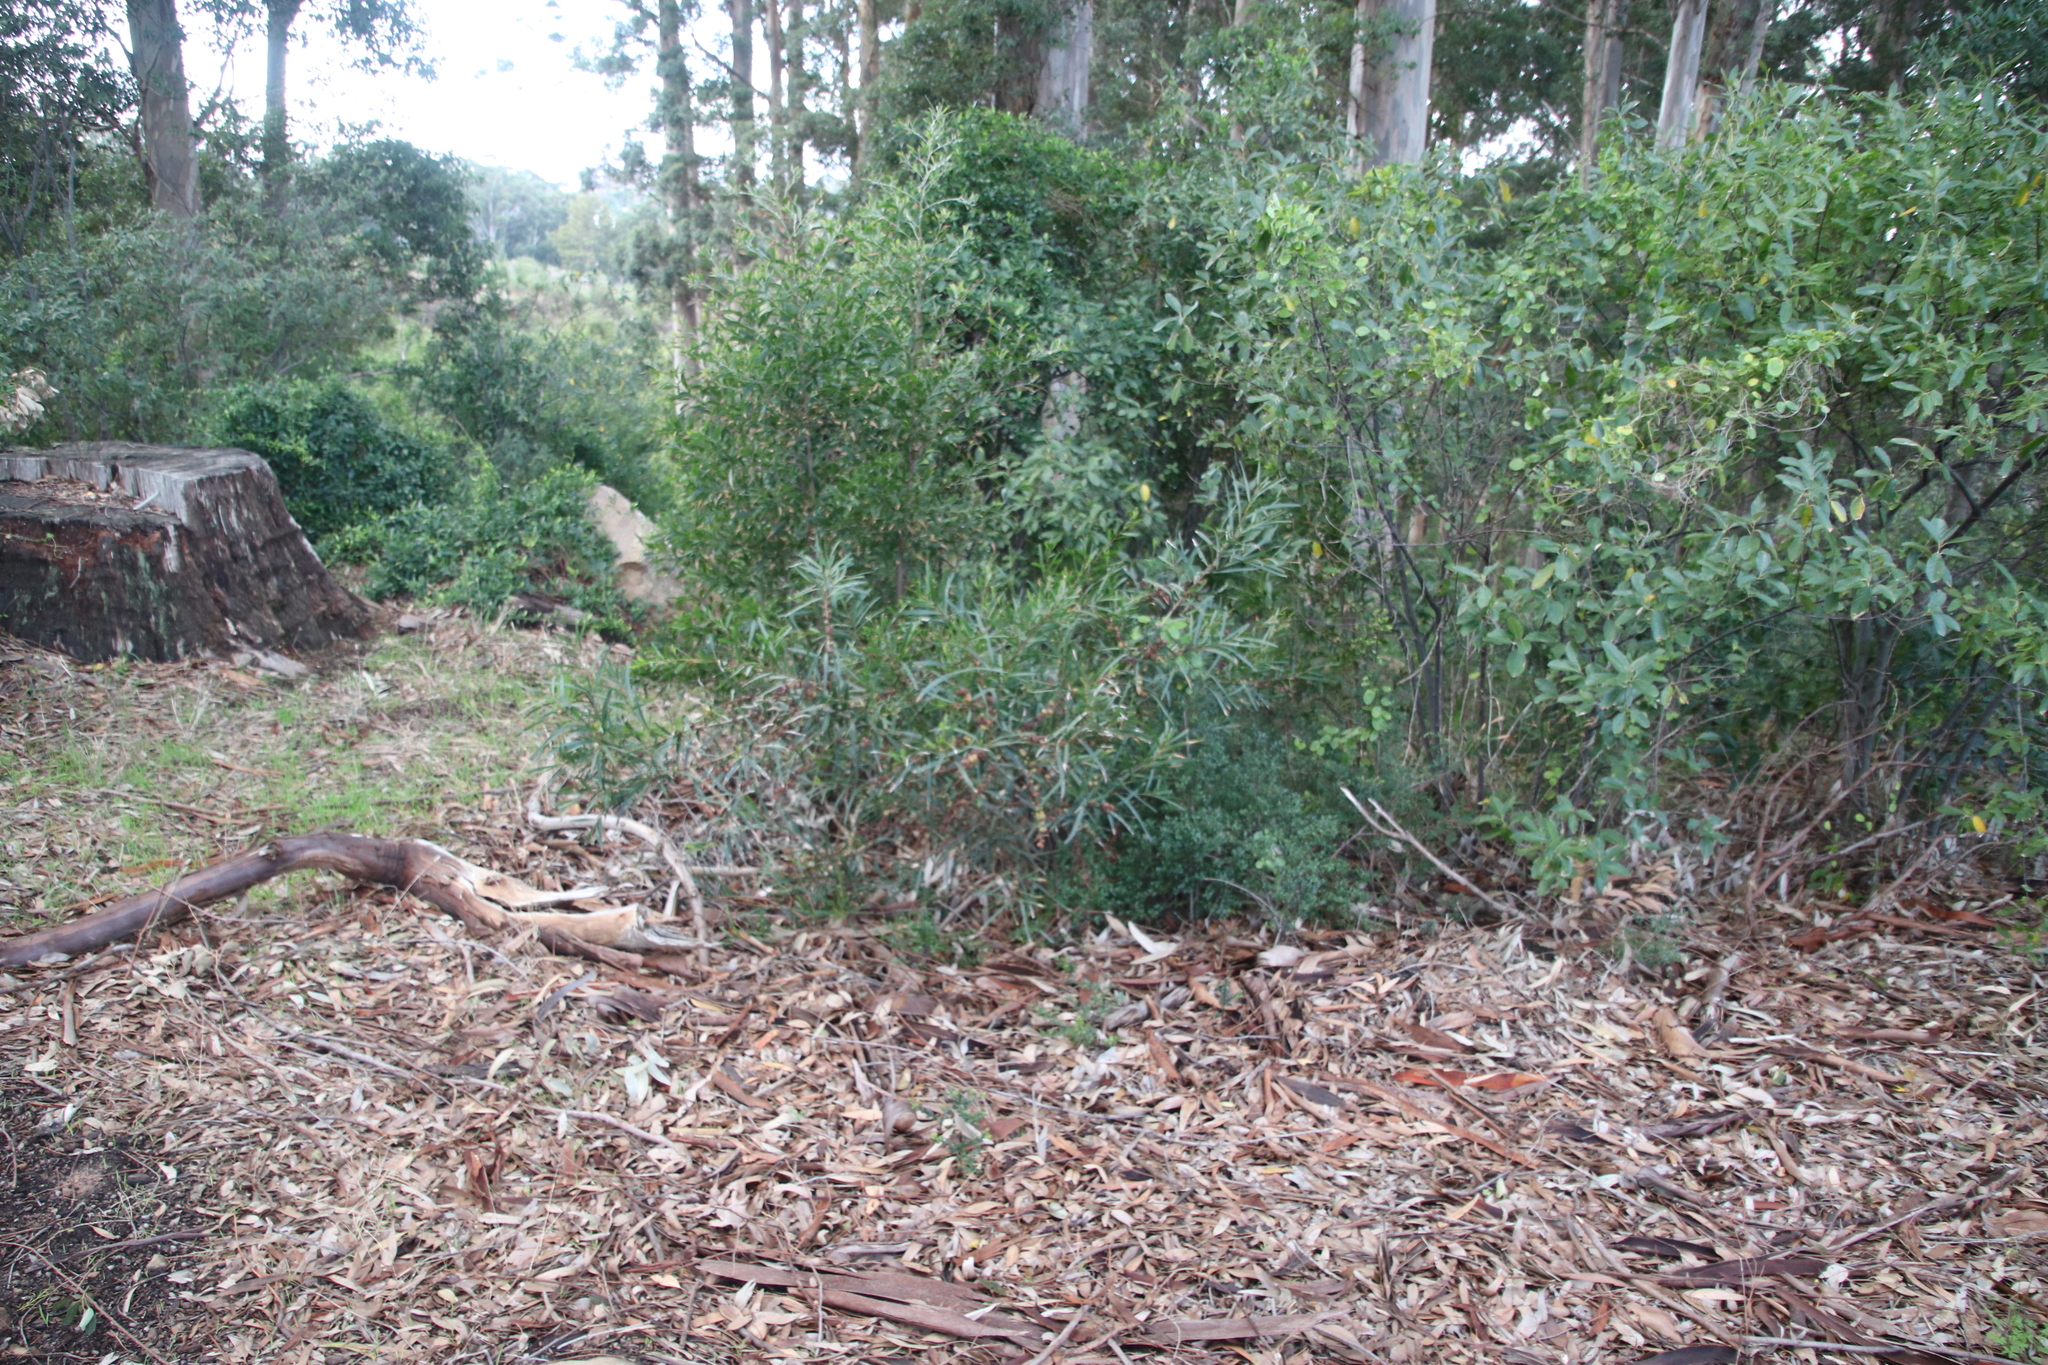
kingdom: Plantae
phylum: Tracheophyta
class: Magnoliopsida
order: Fabales
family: Fabaceae
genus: Acacia
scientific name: Acacia longifolia
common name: Sydney golden wattle
